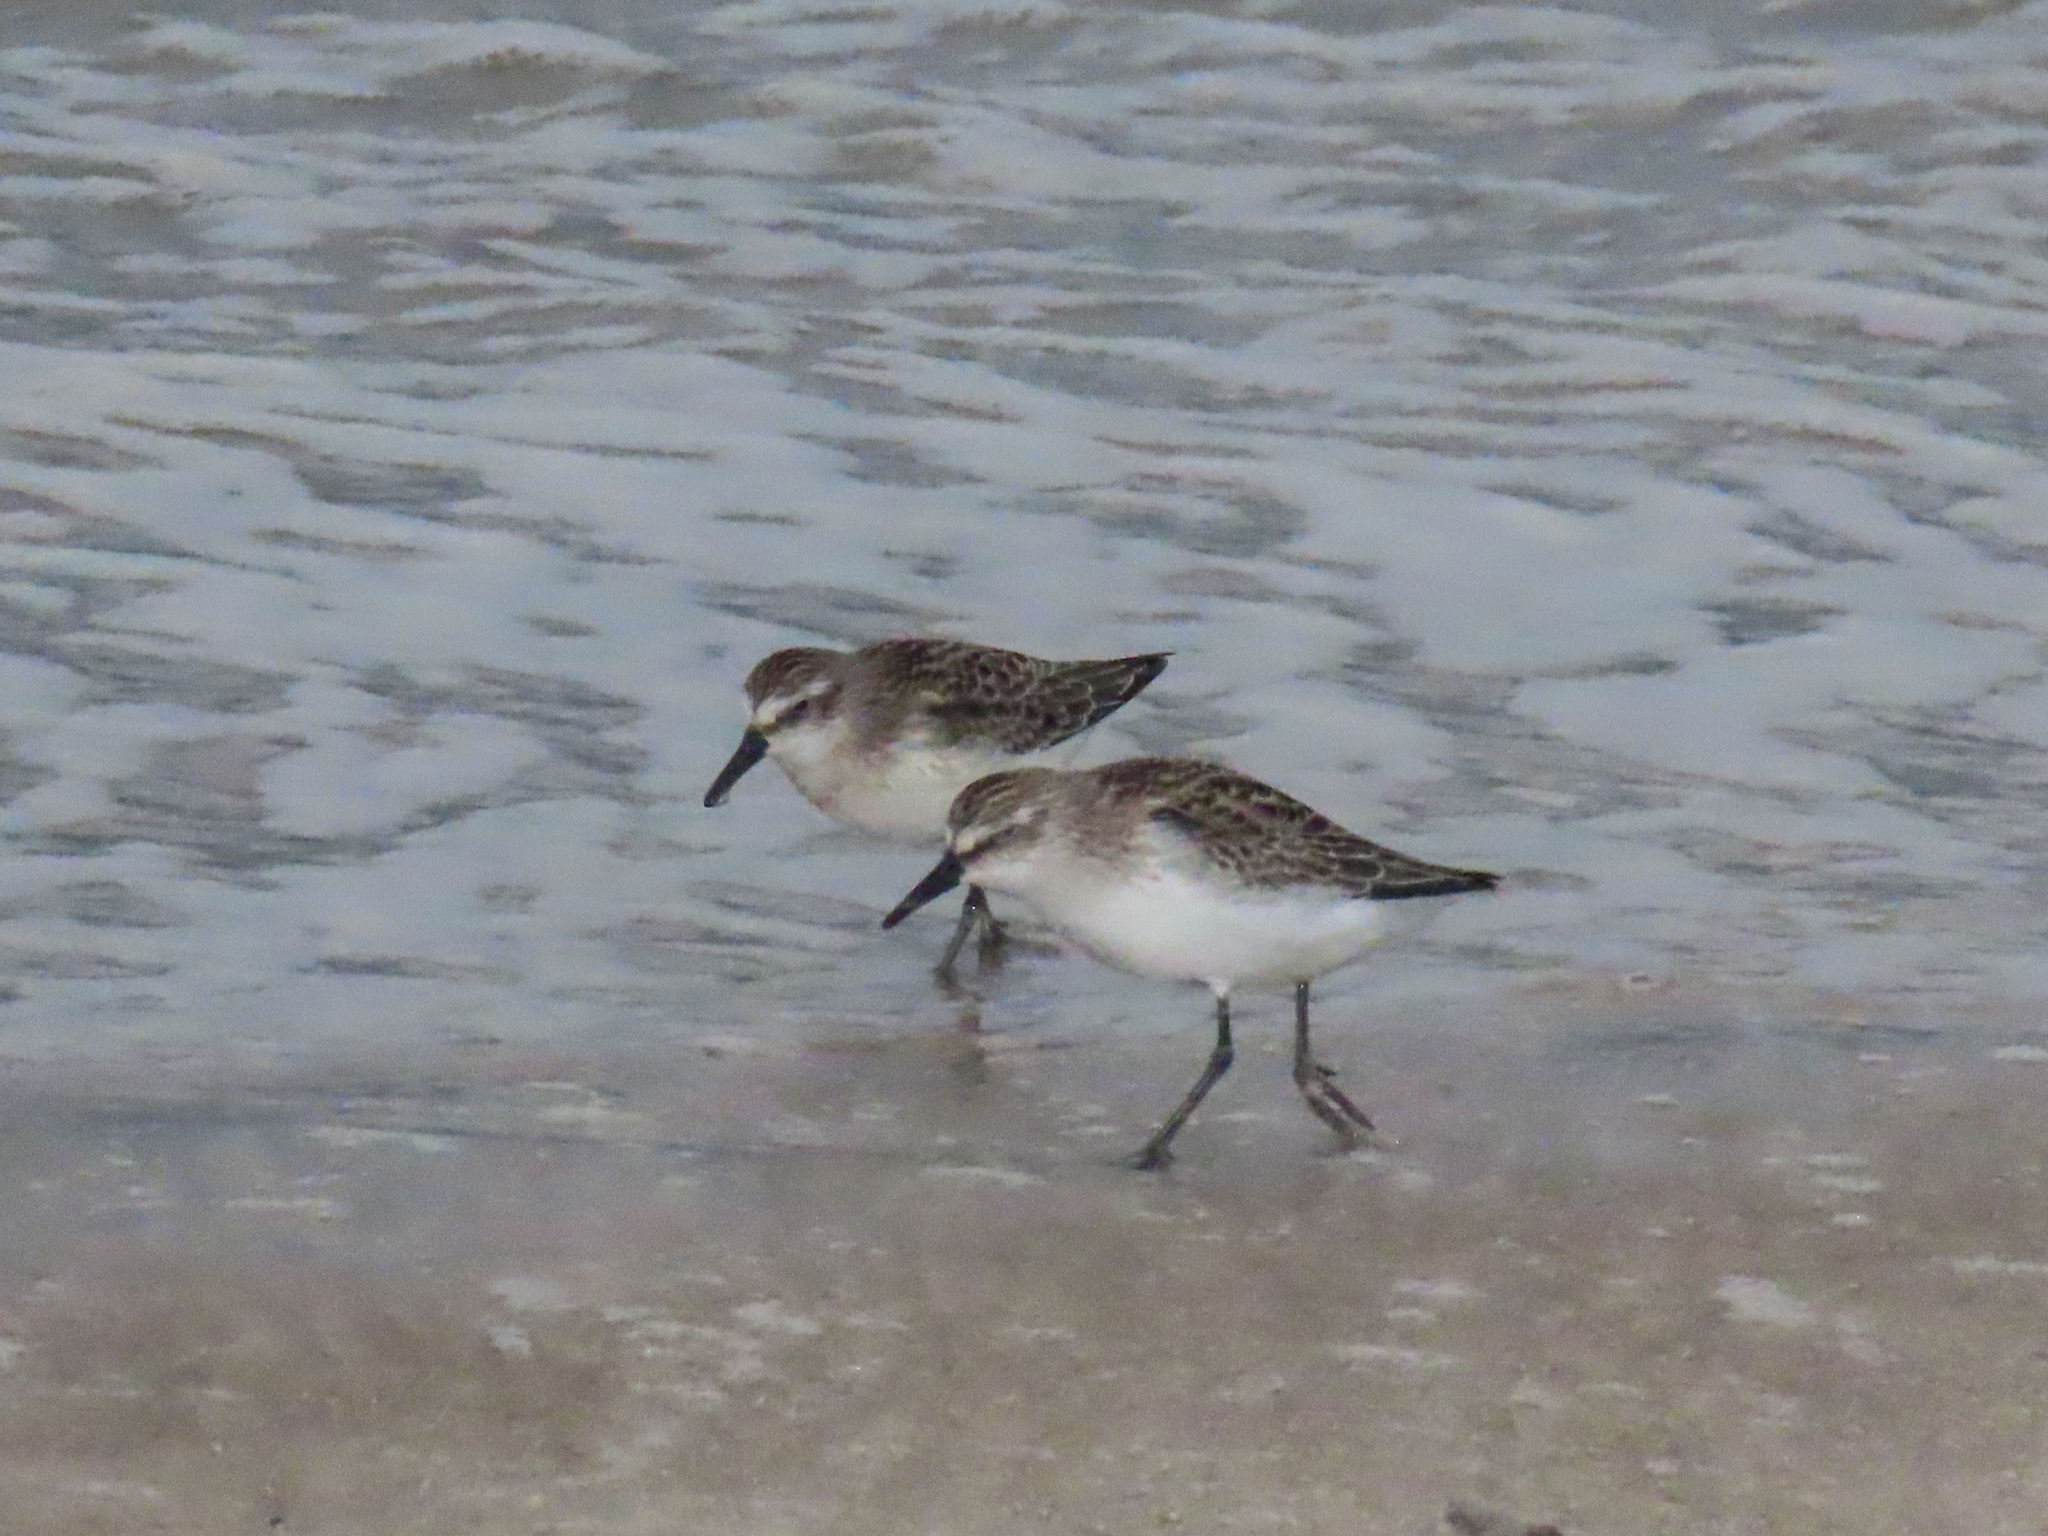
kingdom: Animalia
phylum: Chordata
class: Aves
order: Charadriiformes
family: Scolopacidae
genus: Calidris
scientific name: Calidris alba
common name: Sanderling
